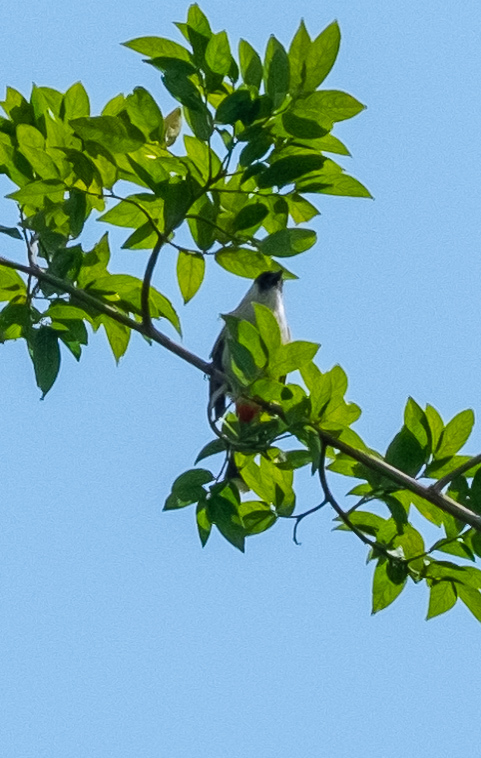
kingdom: Animalia
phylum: Chordata
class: Aves
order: Passeriformes
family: Pycnonotidae
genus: Pycnonotus
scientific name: Pycnonotus aurigaster
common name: Sooty-headed bulbul
